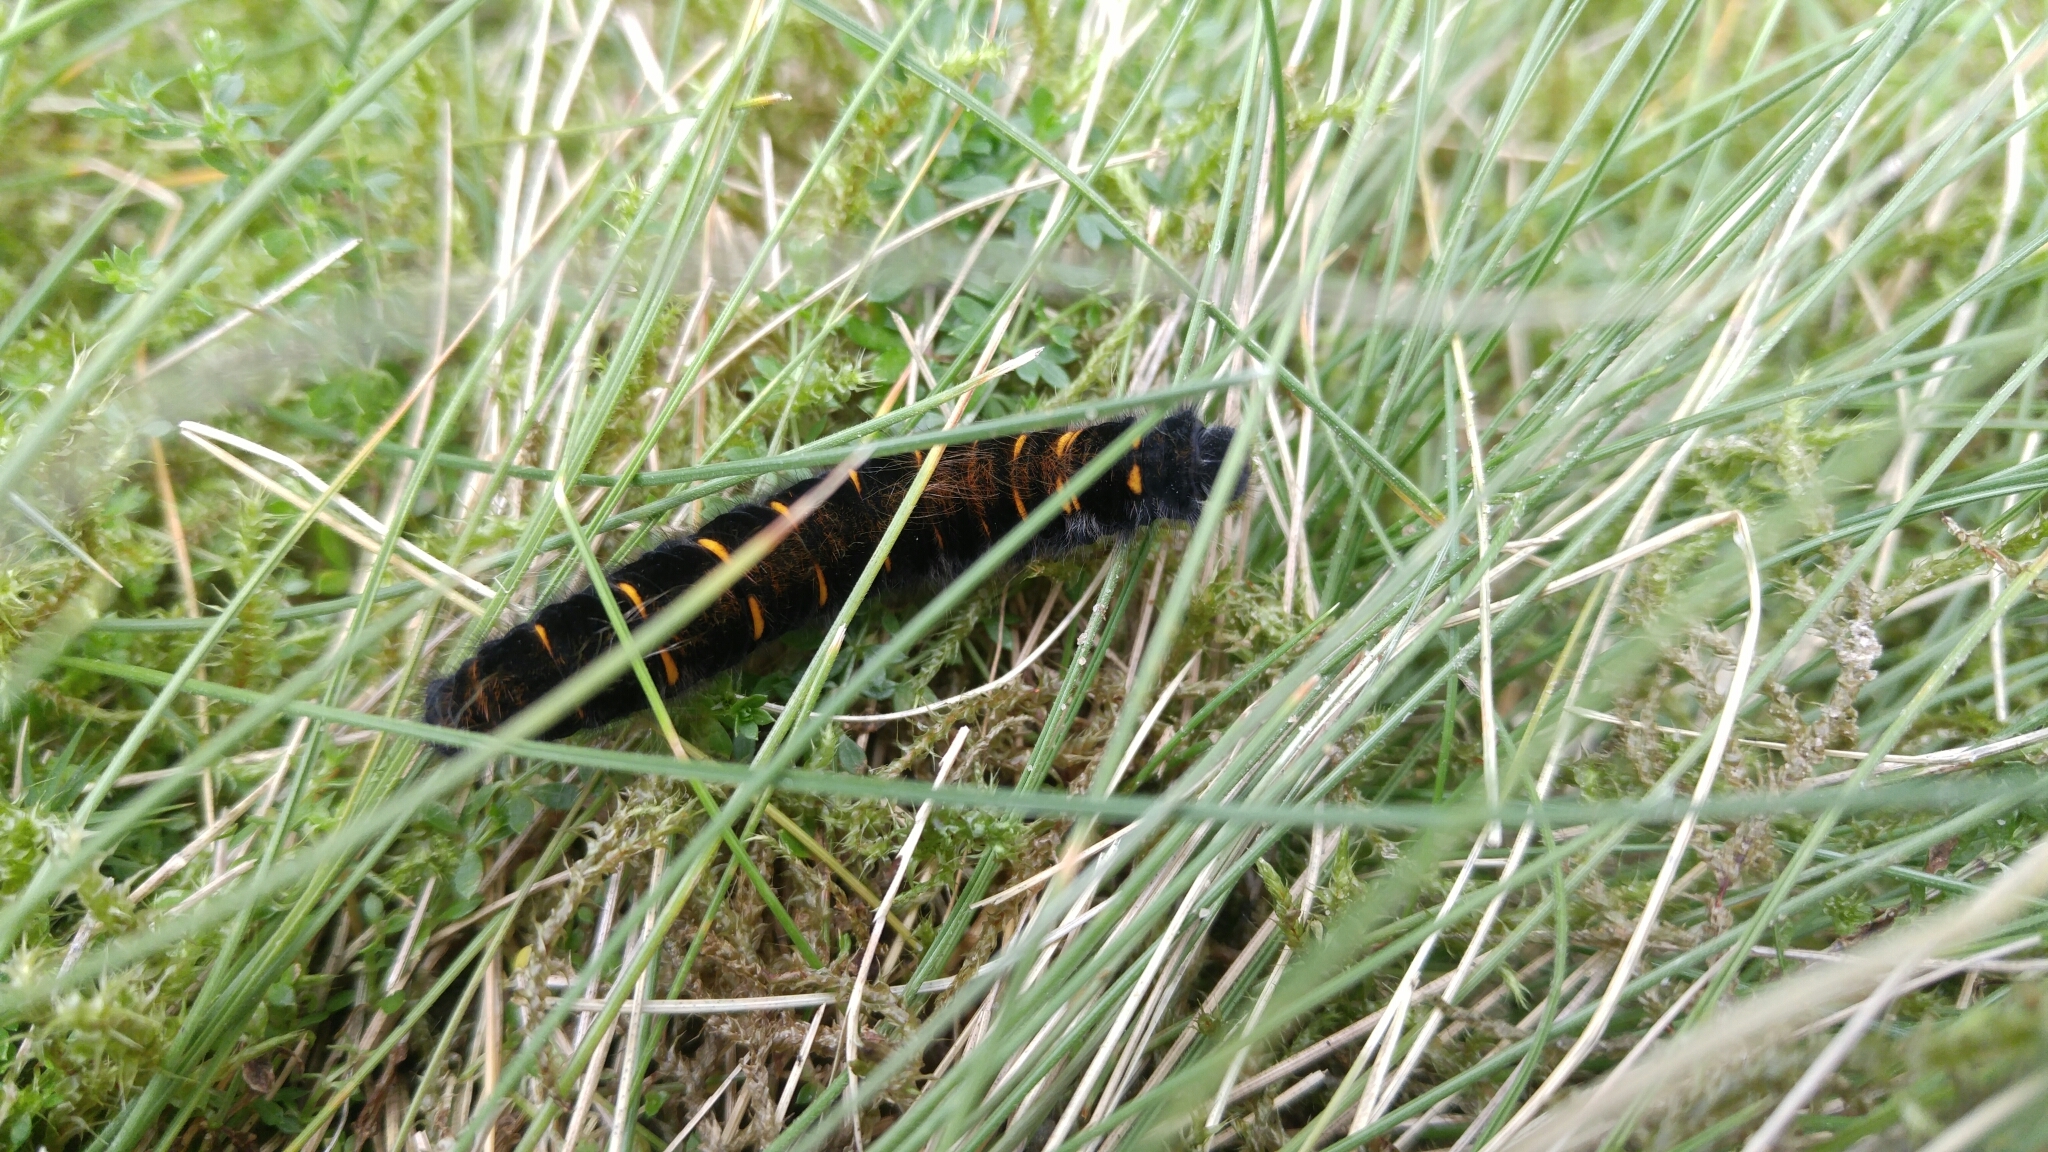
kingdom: Animalia
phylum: Arthropoda
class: Insecta
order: Lepidoptera
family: Lasiocampidae
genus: Macrothylacia
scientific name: Macrothylacia rubi
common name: Fox moth
